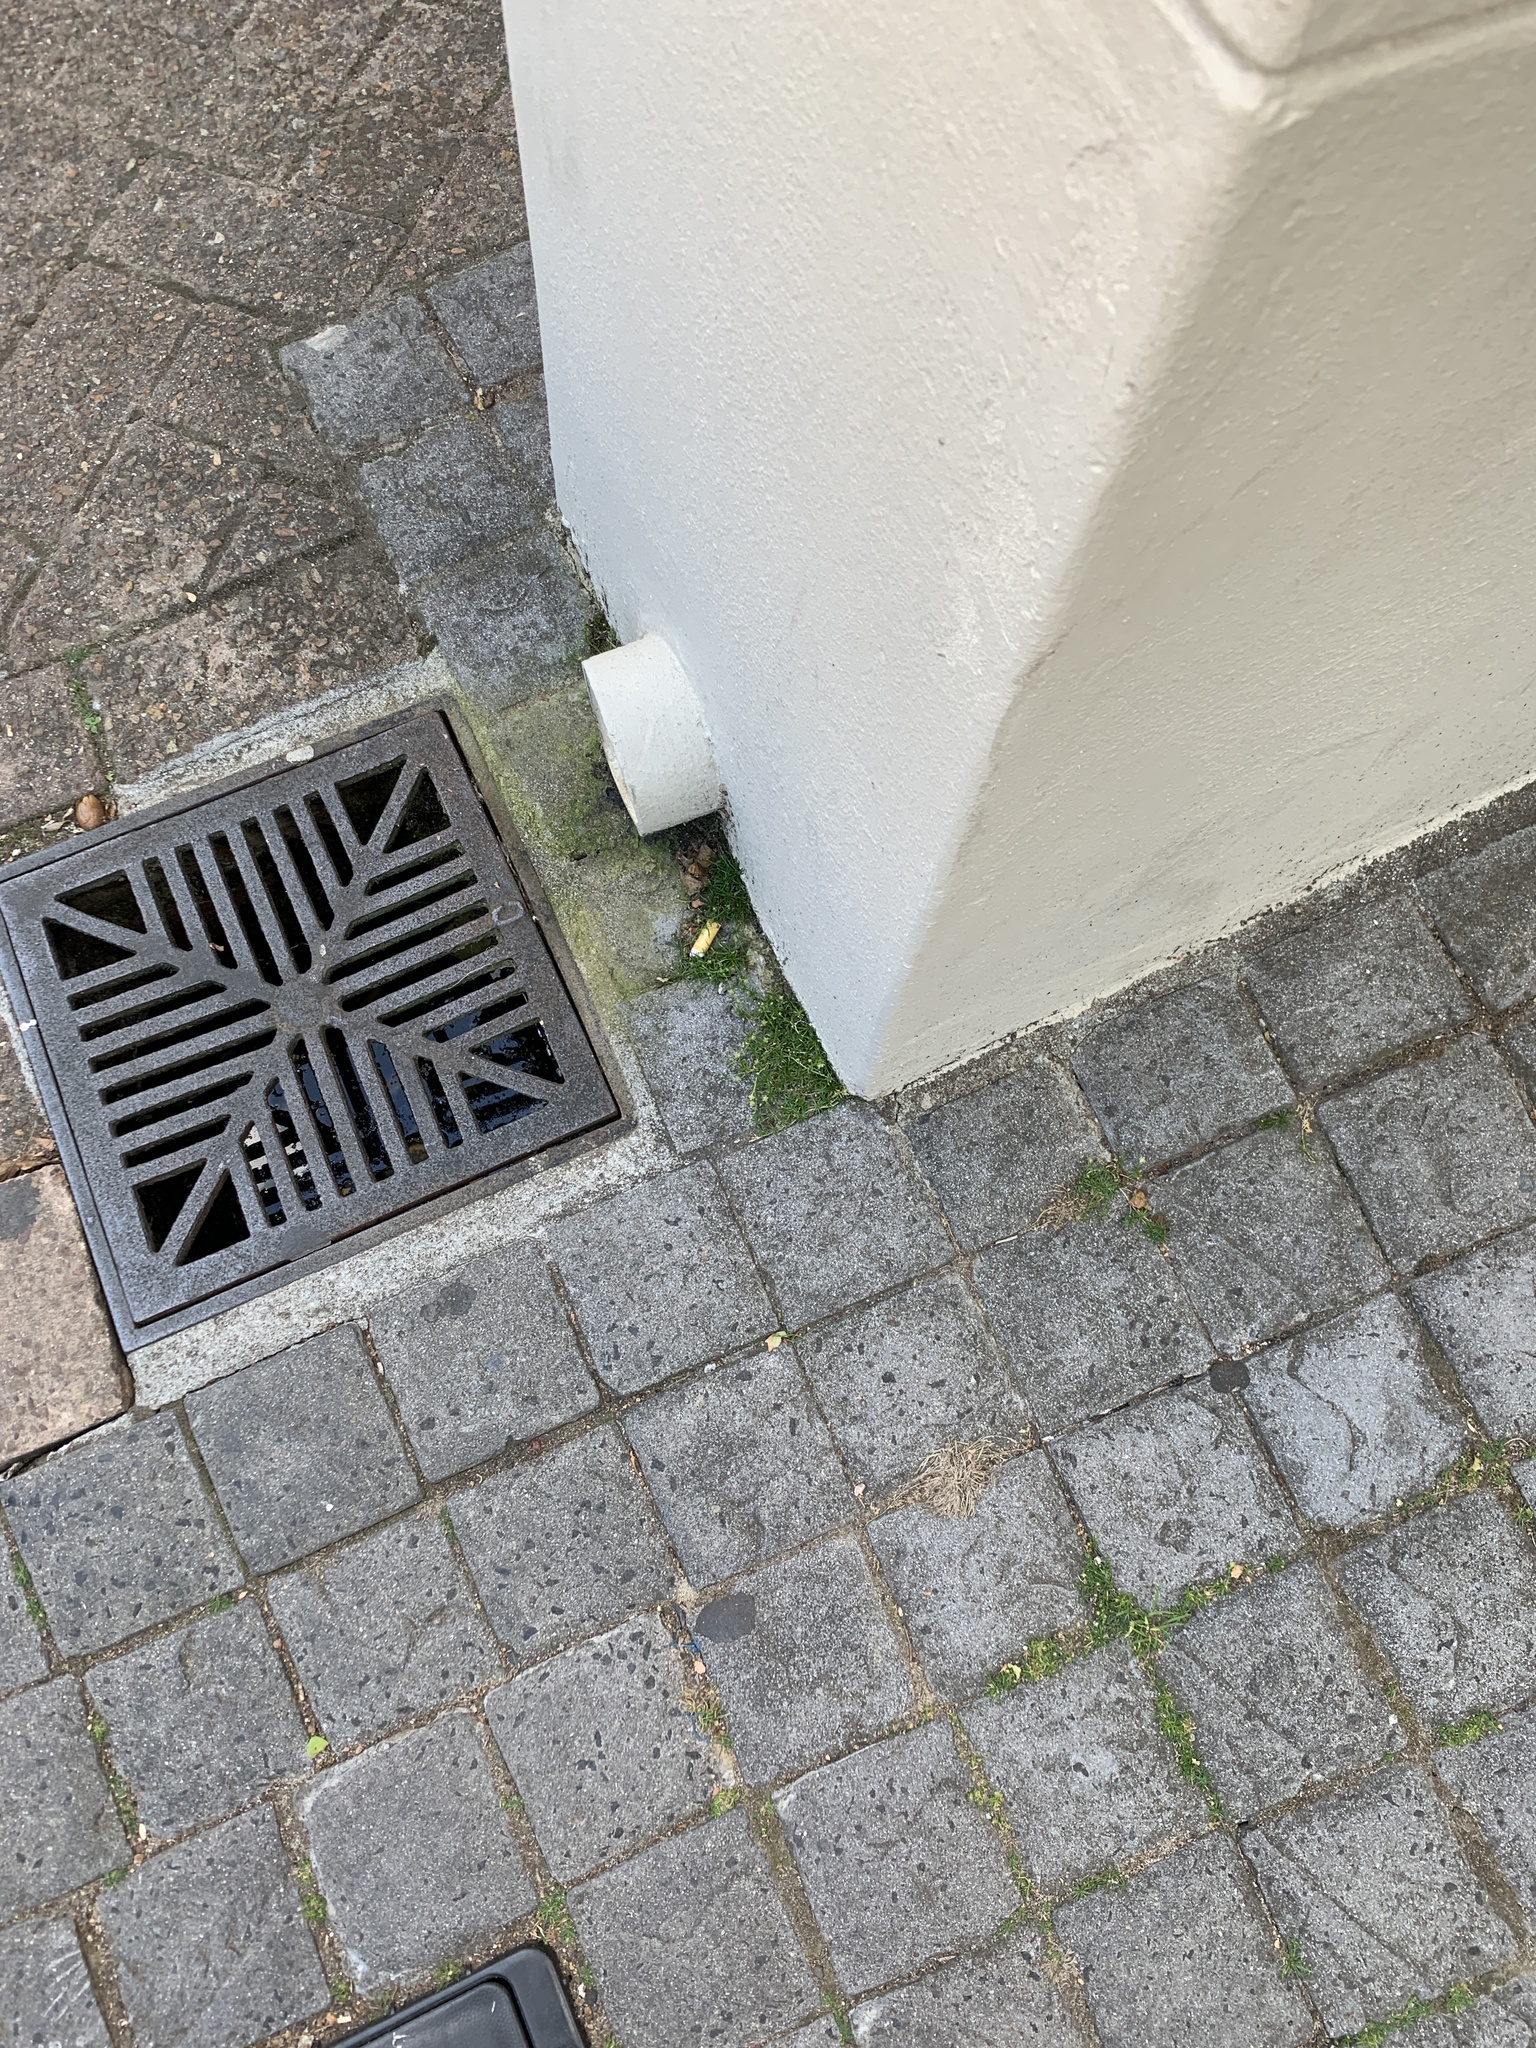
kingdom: Plantae
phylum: Tracheophyta
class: Magnoliopsida
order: Caryophyllales
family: Caryophyllaceae
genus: Sagina
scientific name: Sagina procumbens
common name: Procumbent pearlwort
